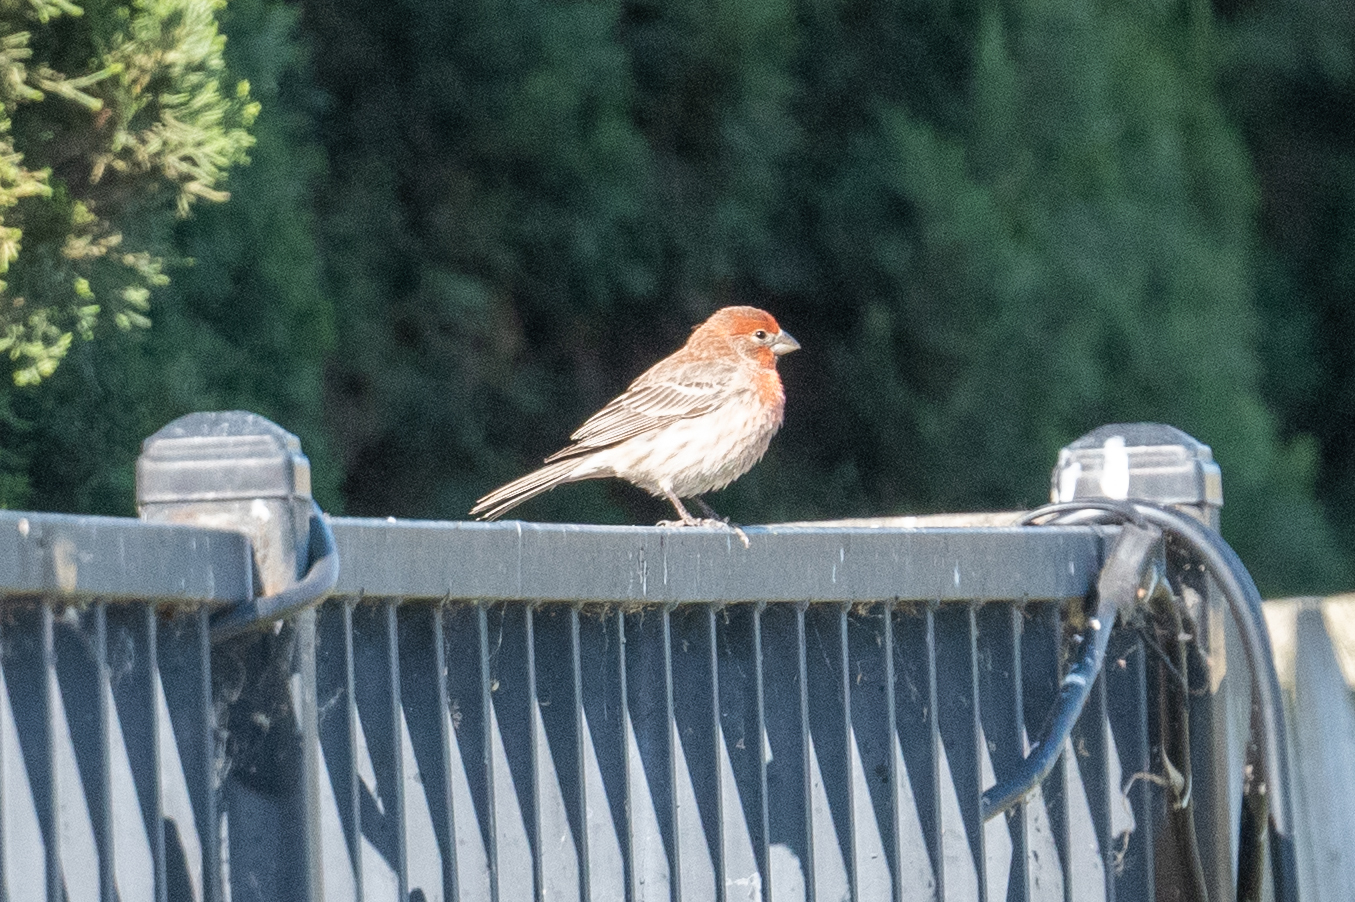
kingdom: Animalia
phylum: Chordata
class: Aves
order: Passeriformes
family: Fringillidae
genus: Haemorhous
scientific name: Haemorhous mexicanus
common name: House finch
